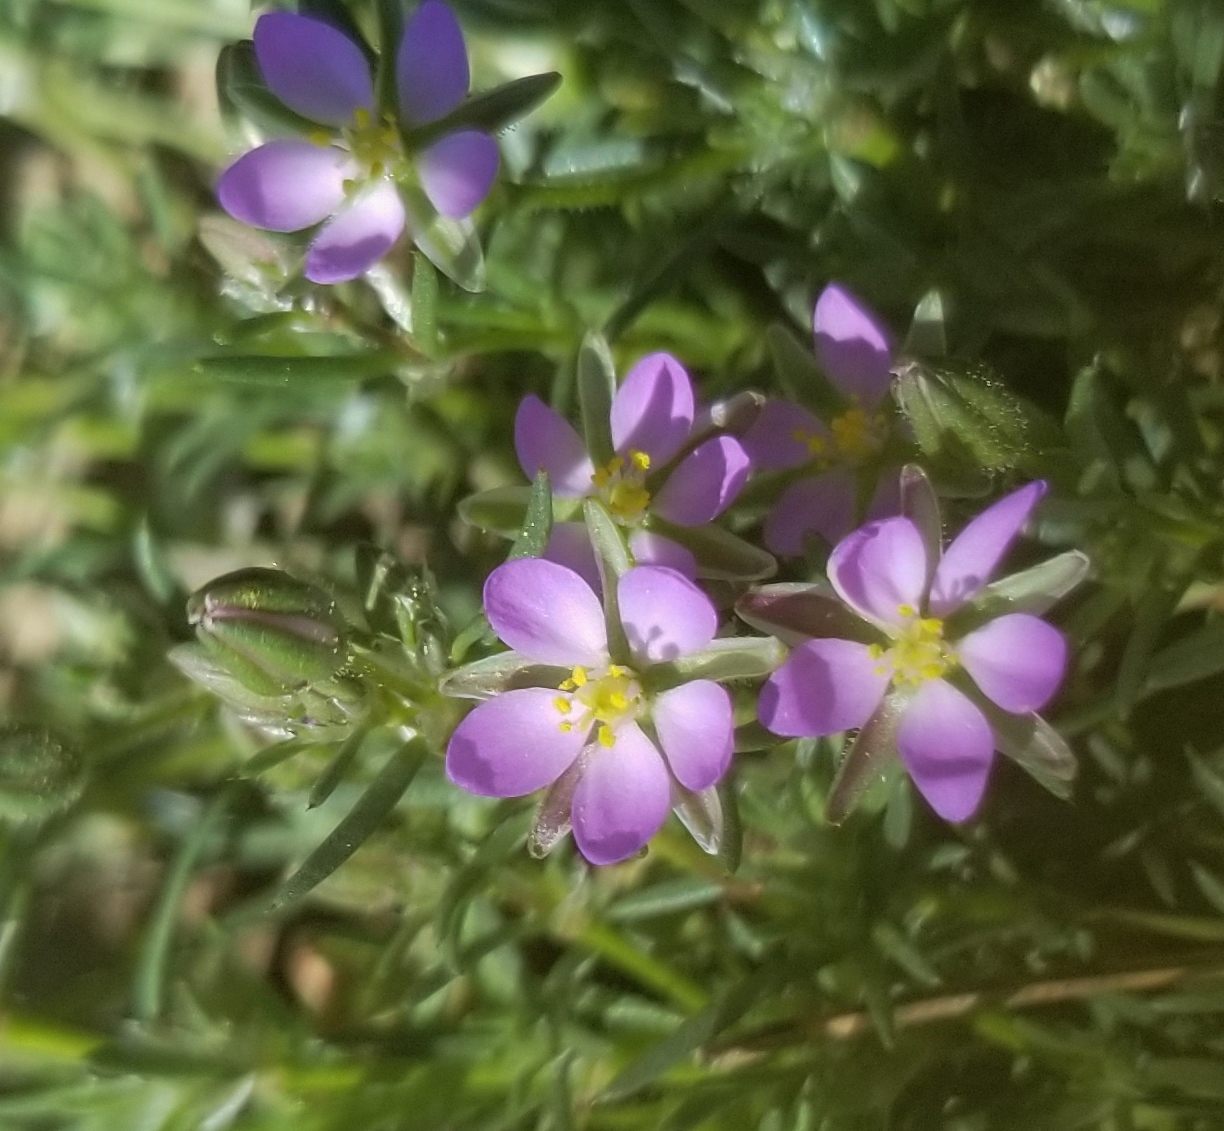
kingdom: Plantae
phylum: Tracheophyta
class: Magnoliopsida
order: Caryophyllales
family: Caryophyllaceae
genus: Spergularia
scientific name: Spergularia rubra
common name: Red sand-spurrey
